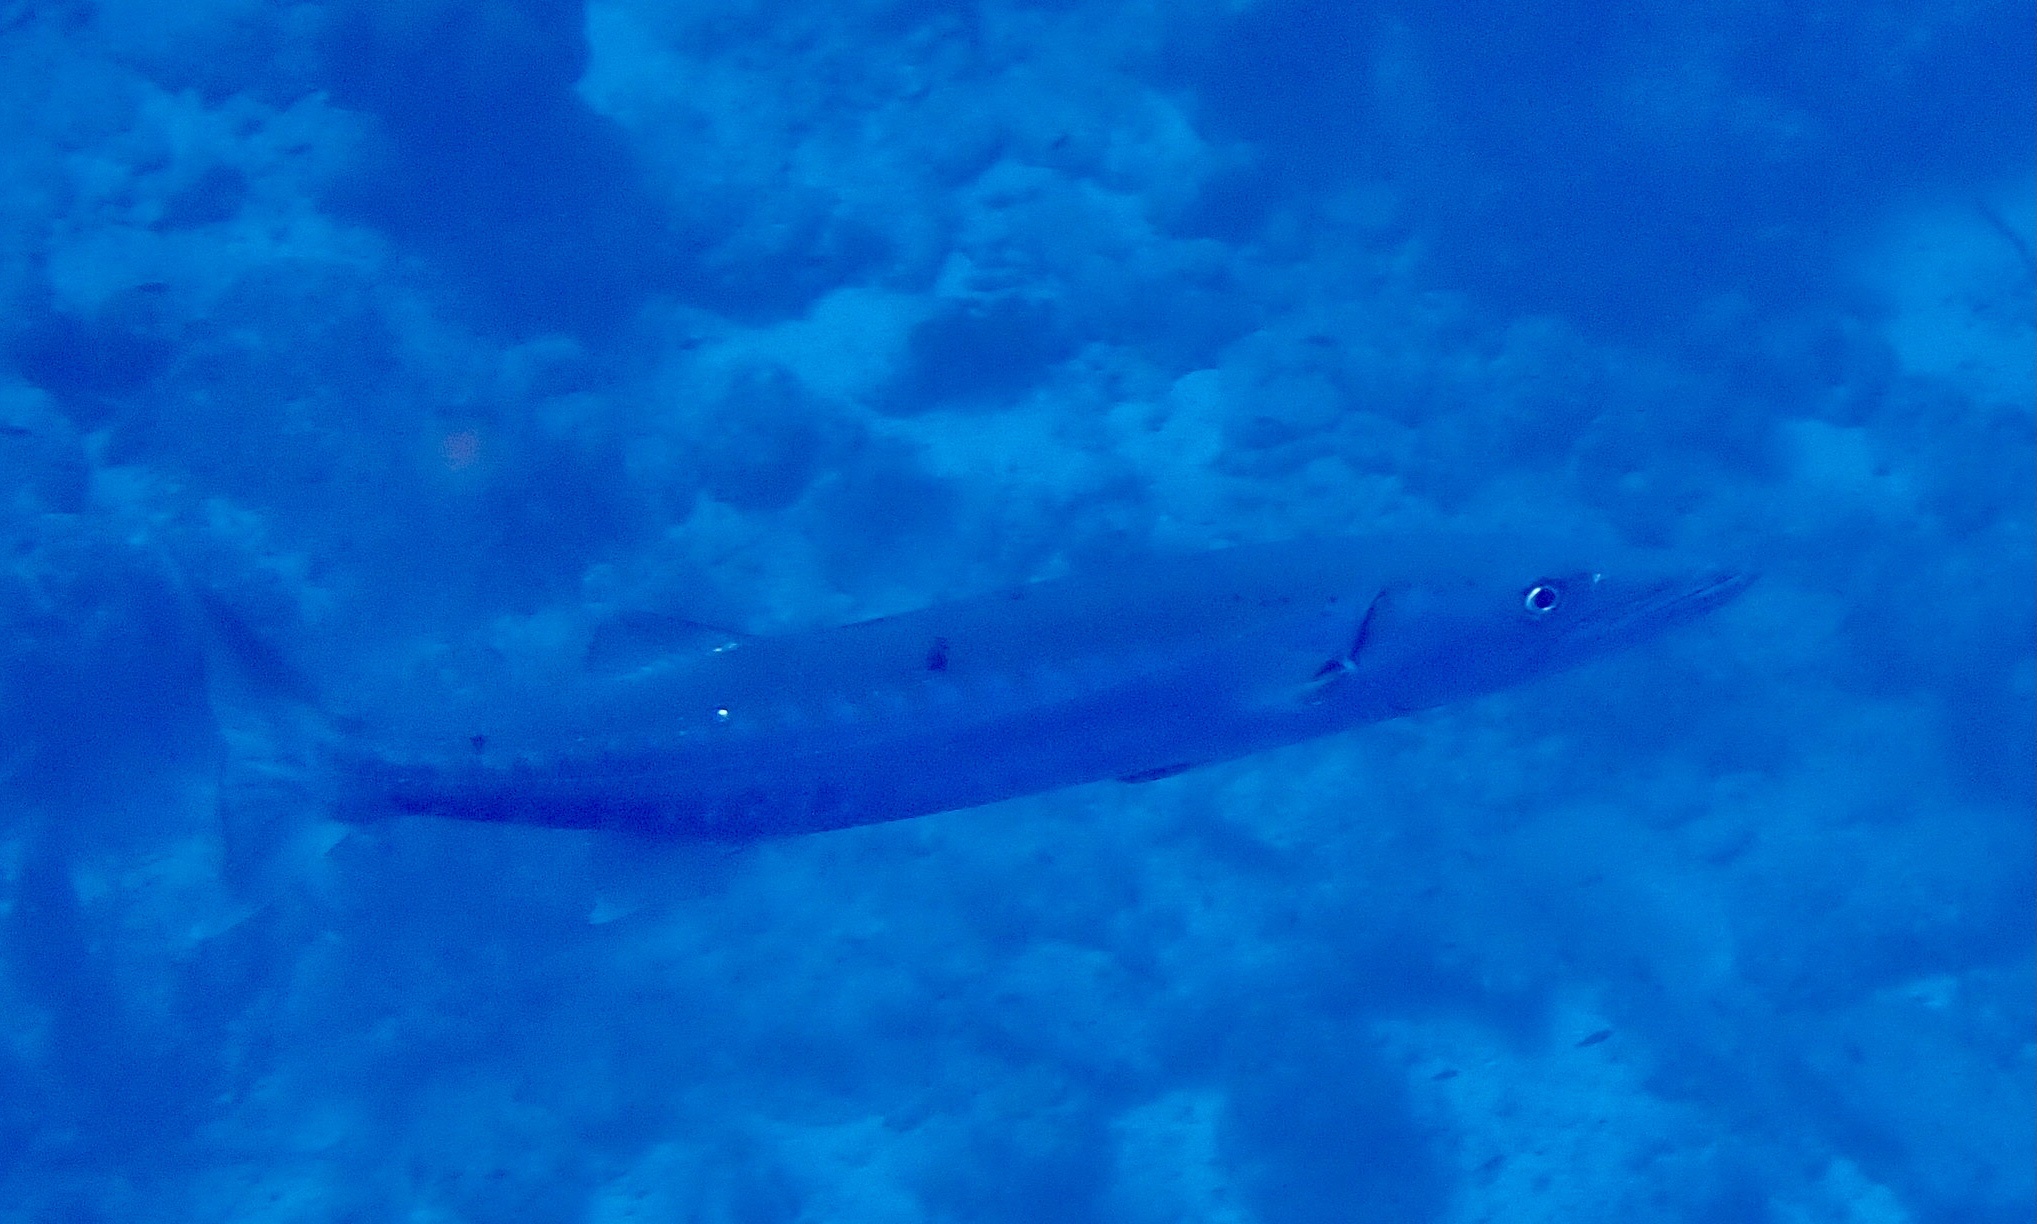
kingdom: Animalia
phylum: Chordata
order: Perciformes
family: Sphyraenidae
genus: Sphyraena
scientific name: Sphyraena barracuda
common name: Great barracuda
